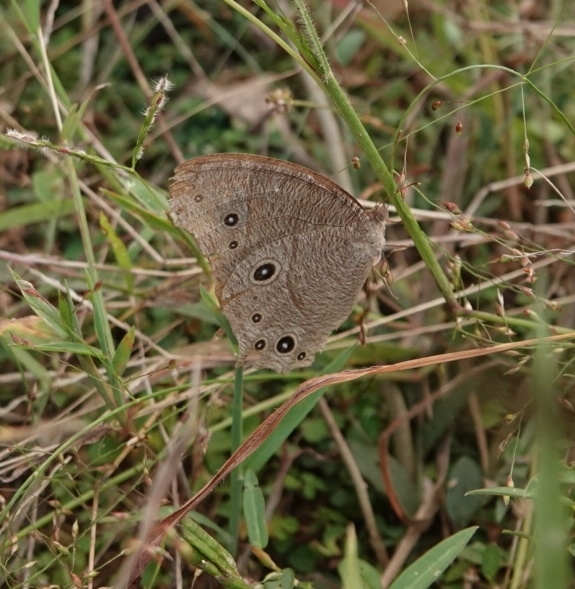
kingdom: Animalia
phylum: Arthropoda
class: Insecta
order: Lepidoptera
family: Nymphalidae
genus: Melanitis
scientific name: Melanitis leda
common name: Twilight brown
